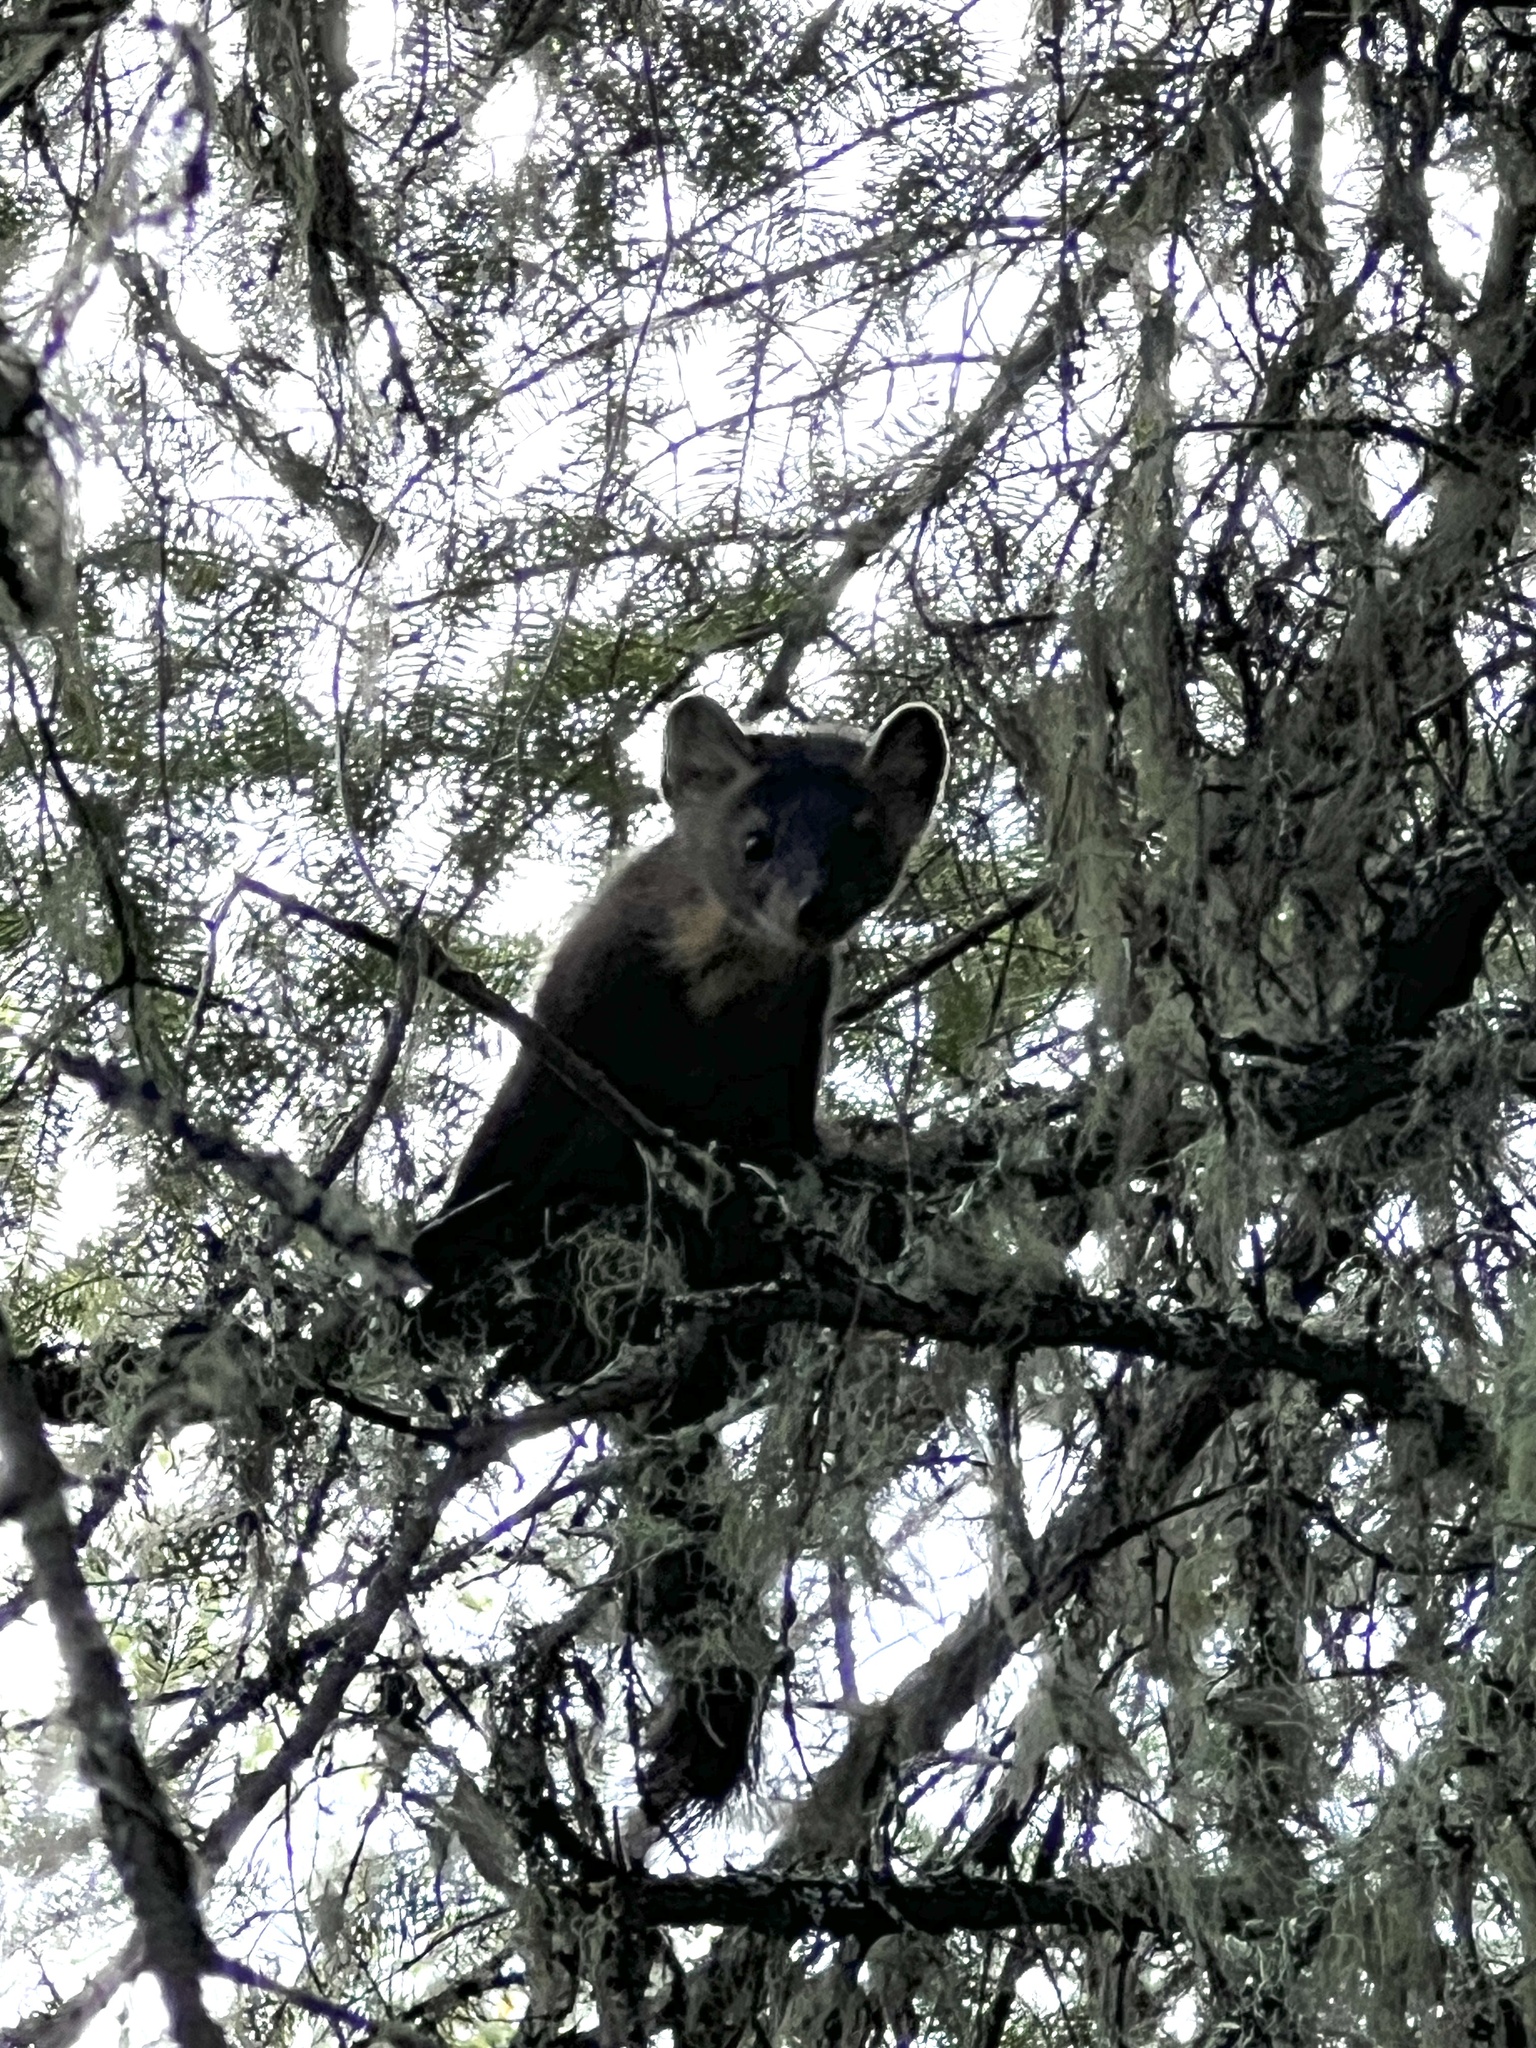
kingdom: Animalia
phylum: Chordata
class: Mammalia
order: Carnivora
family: Mustelidae
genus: Martes
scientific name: Martes americana
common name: American marten
